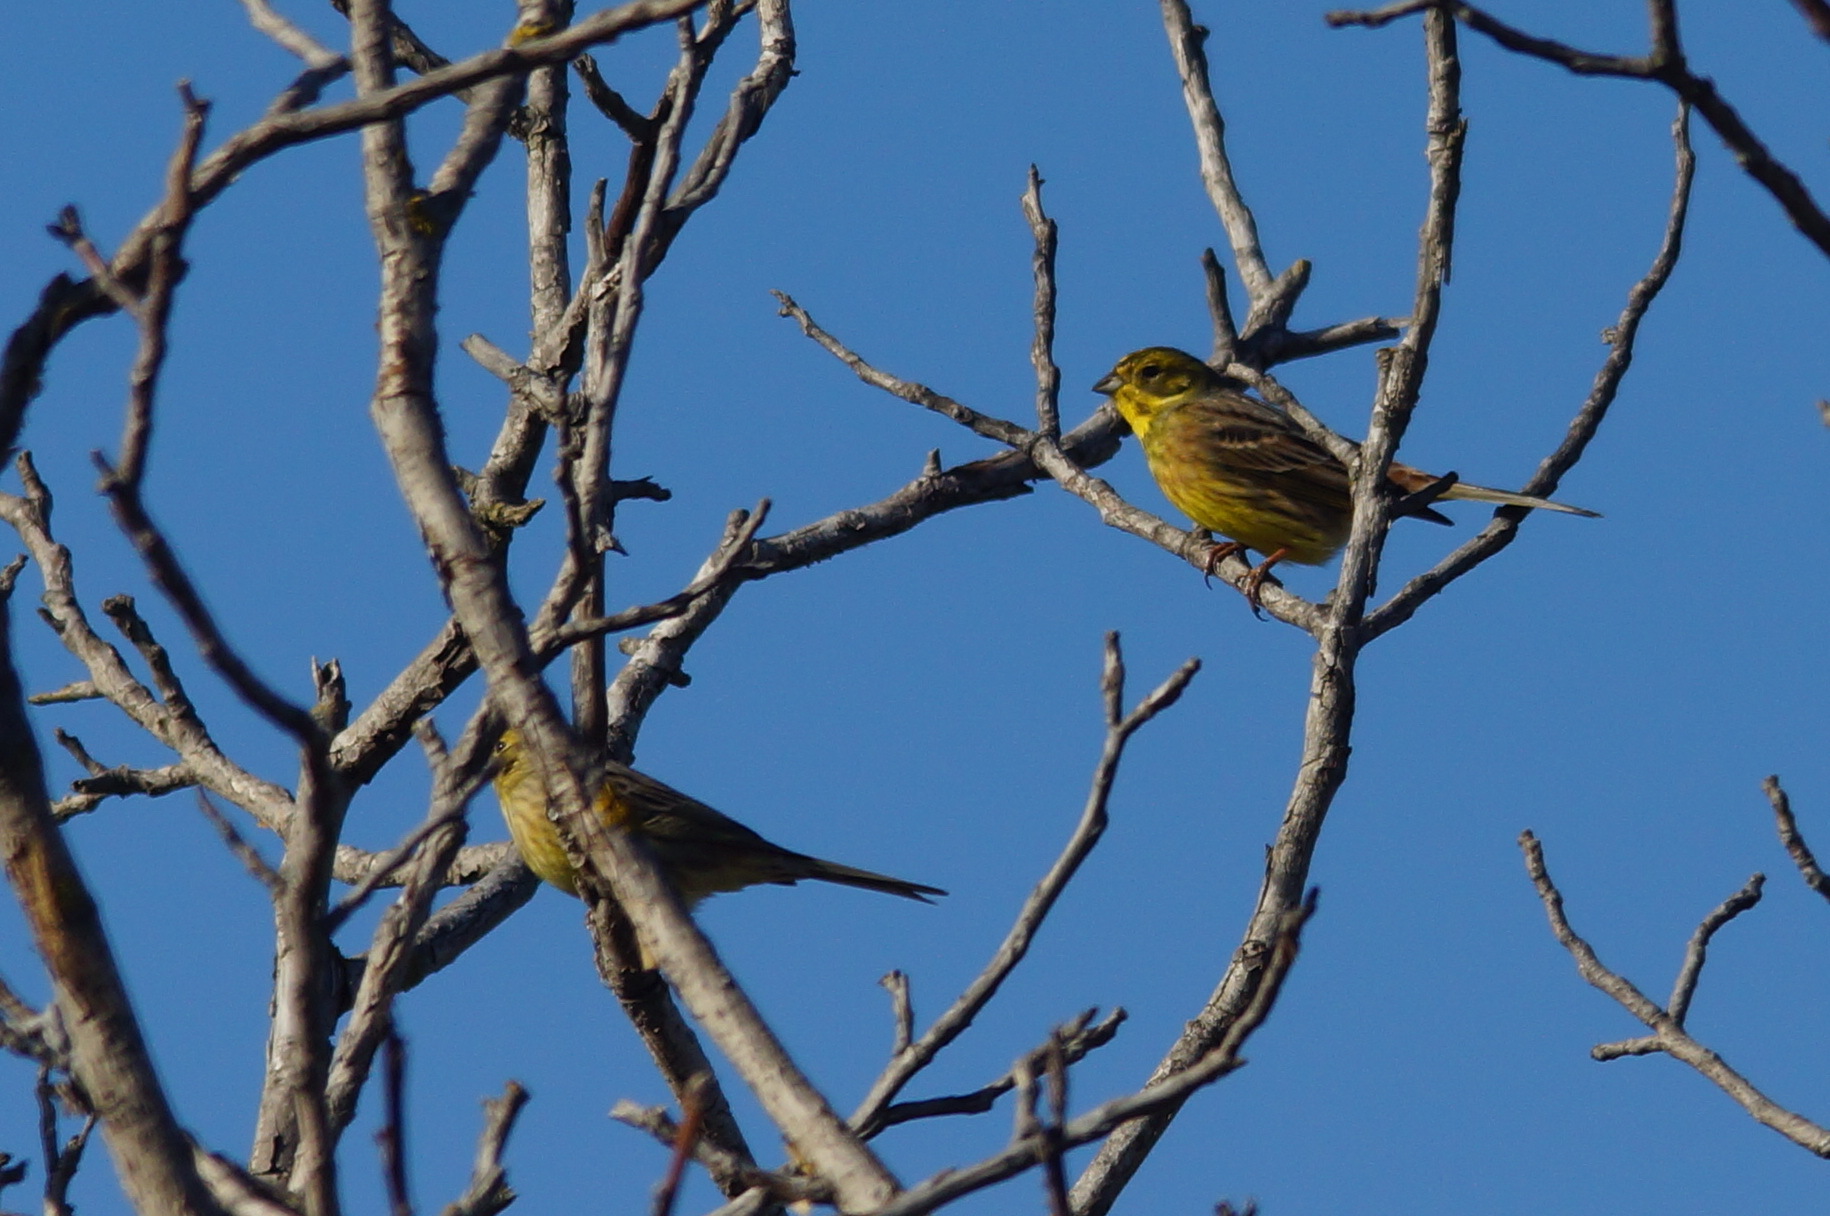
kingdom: Animalia
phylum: Chordata
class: Aves
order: Passeriformes
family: Emberizidae
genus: Emberiza
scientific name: Emberiza citrinella
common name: Yellowhammer
